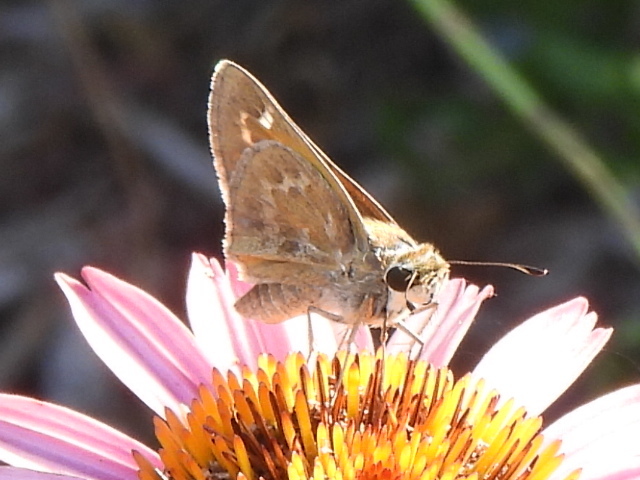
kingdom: Animalia
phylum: Arthropoda
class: Insecta
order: Lepidoptera
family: Hesperiidae
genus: Atalopedes
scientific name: Atalopedes
